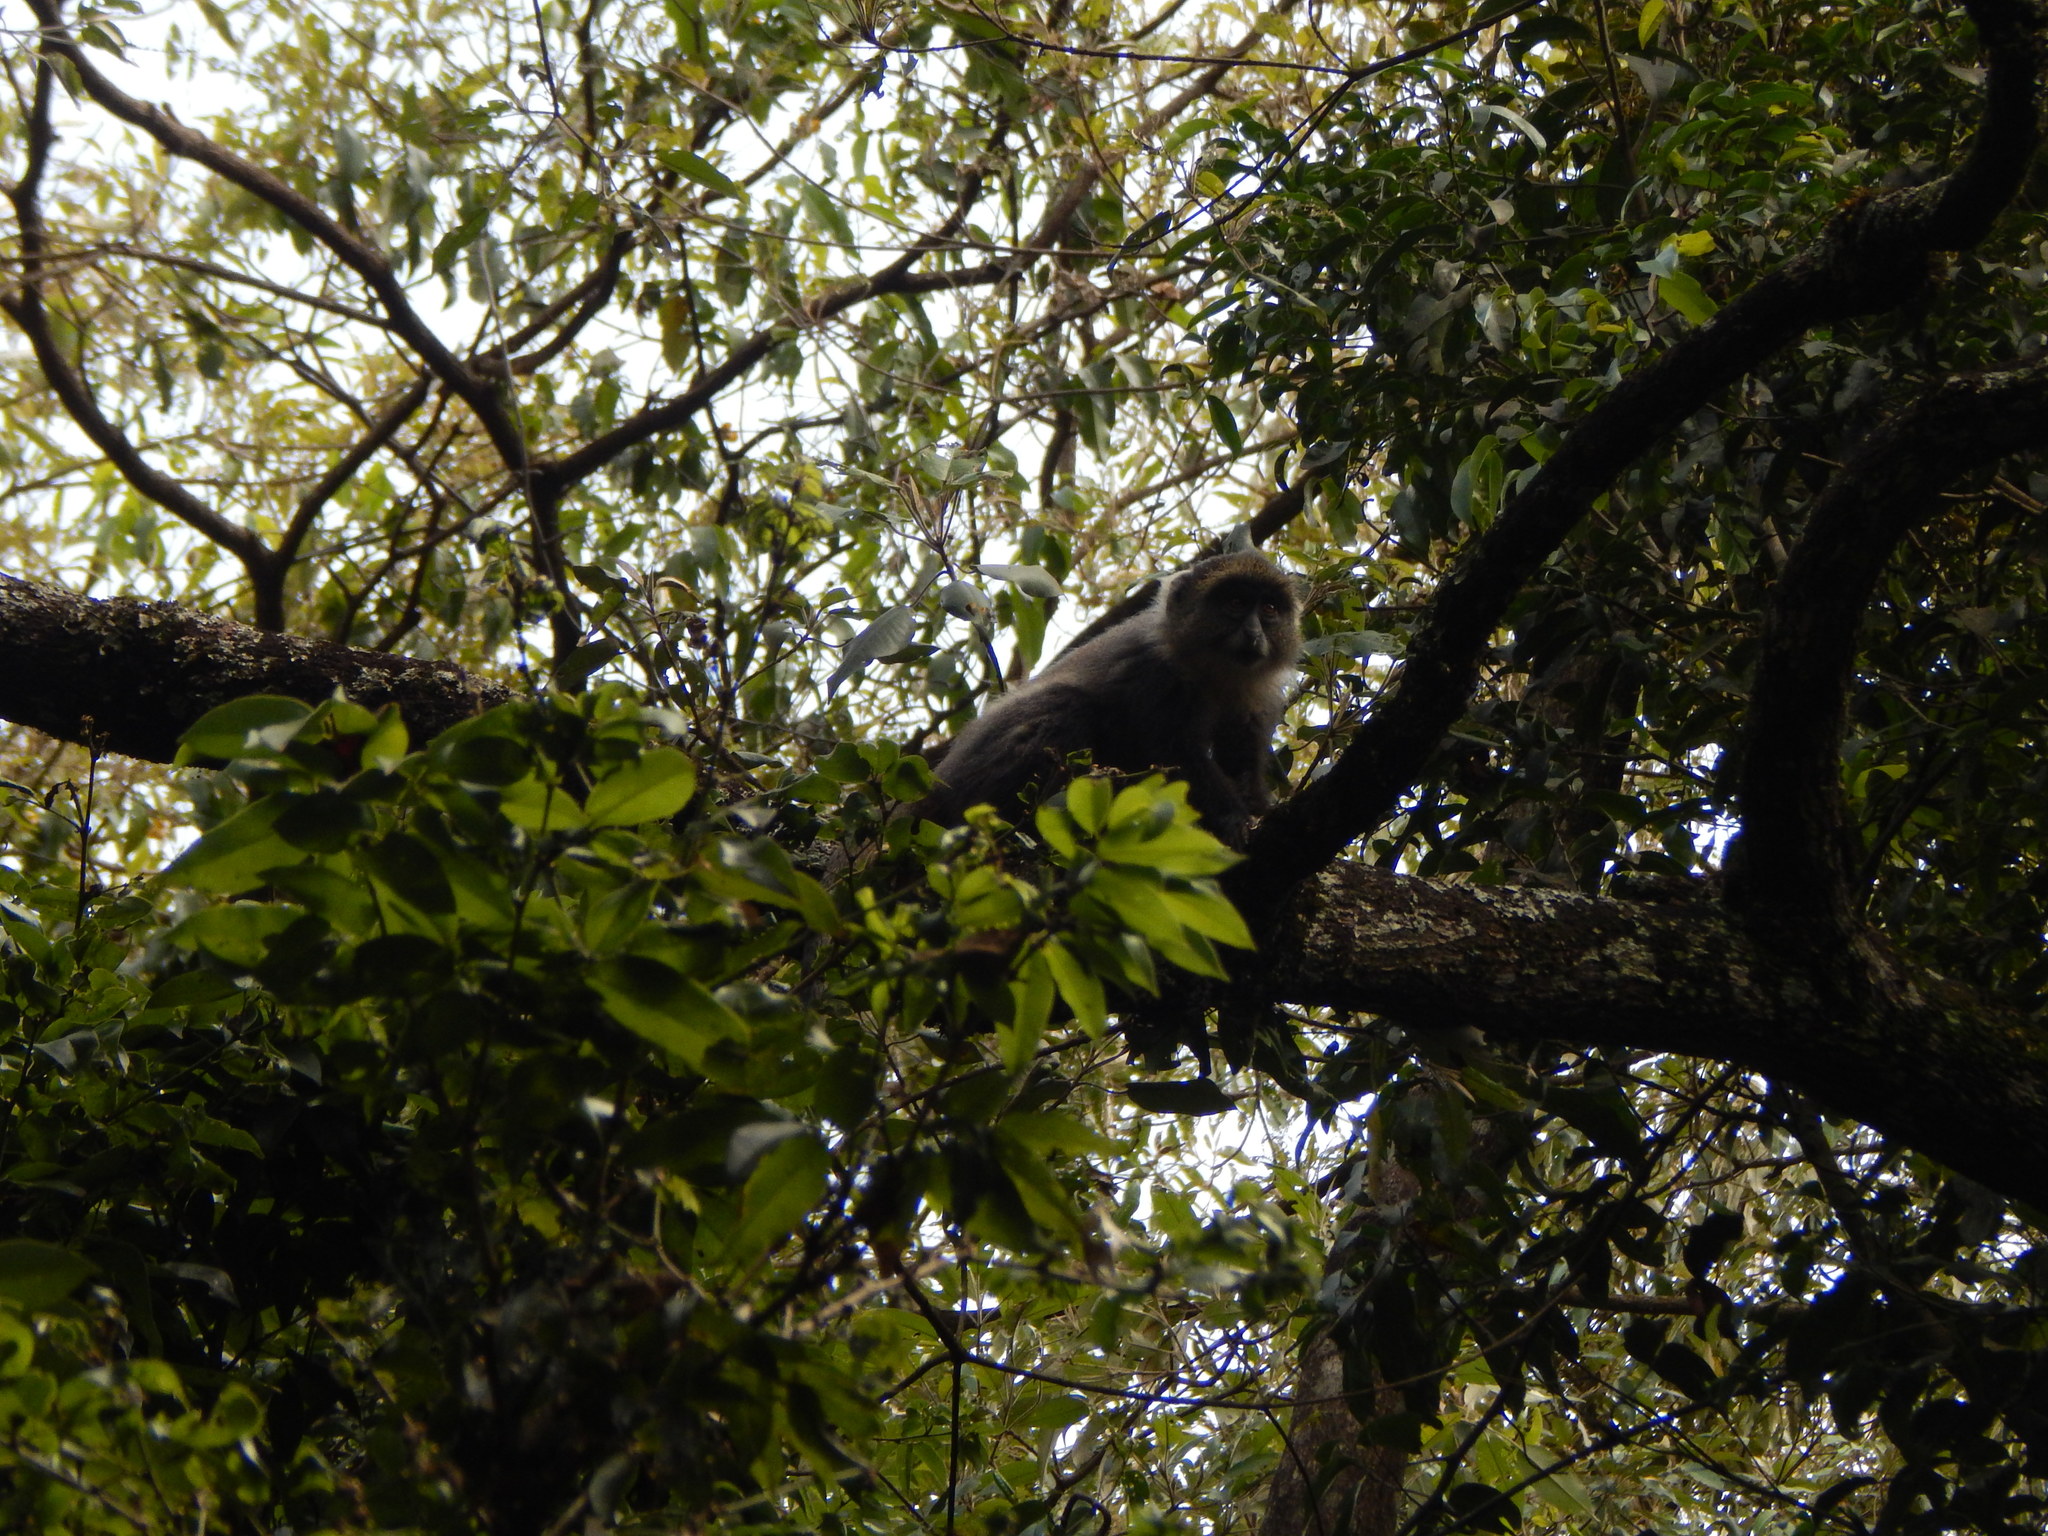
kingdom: Animalia
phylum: Chordata
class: Mammalia
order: Primates
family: Cercopithecidae
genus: Cercopithecus
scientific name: Cercopithecus mitis
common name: Blue monkey
